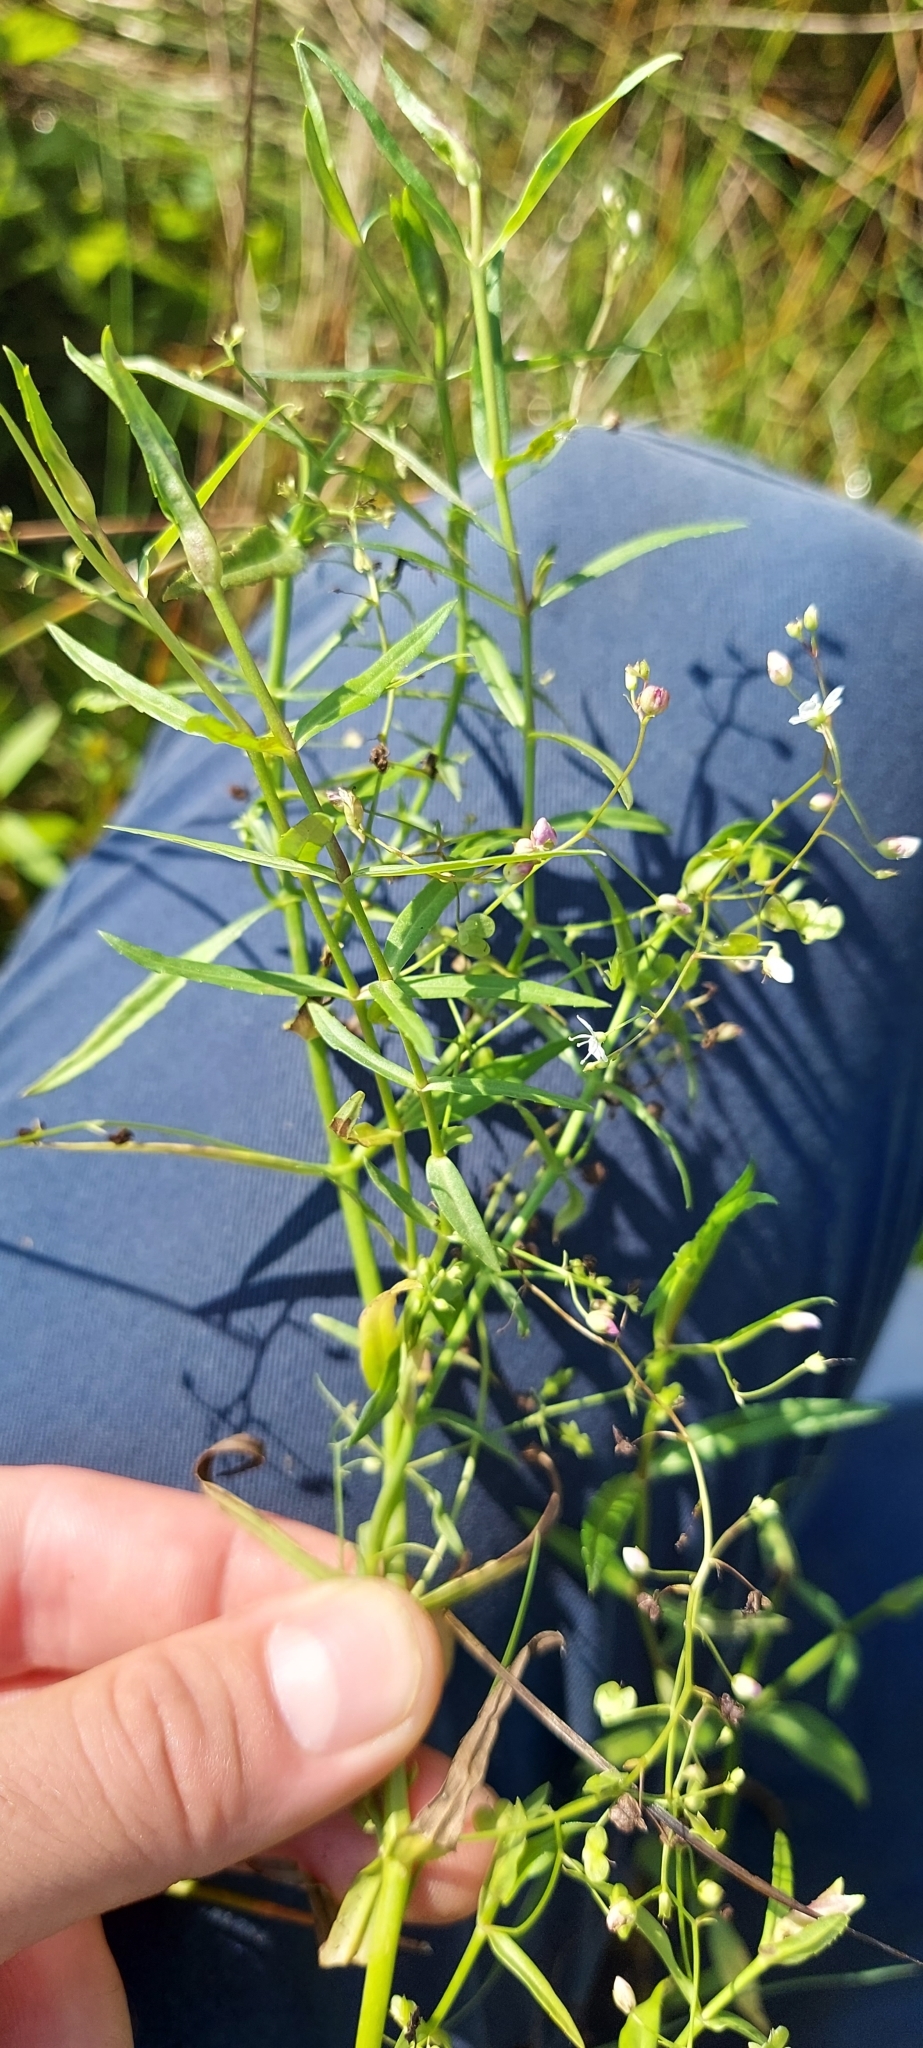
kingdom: Plantae
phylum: Tracheophyta
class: Magnoliopsida
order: Lamiales
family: Plantaginaceae
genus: Veronica
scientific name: Veronica scutellata
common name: Marsh speedwell
